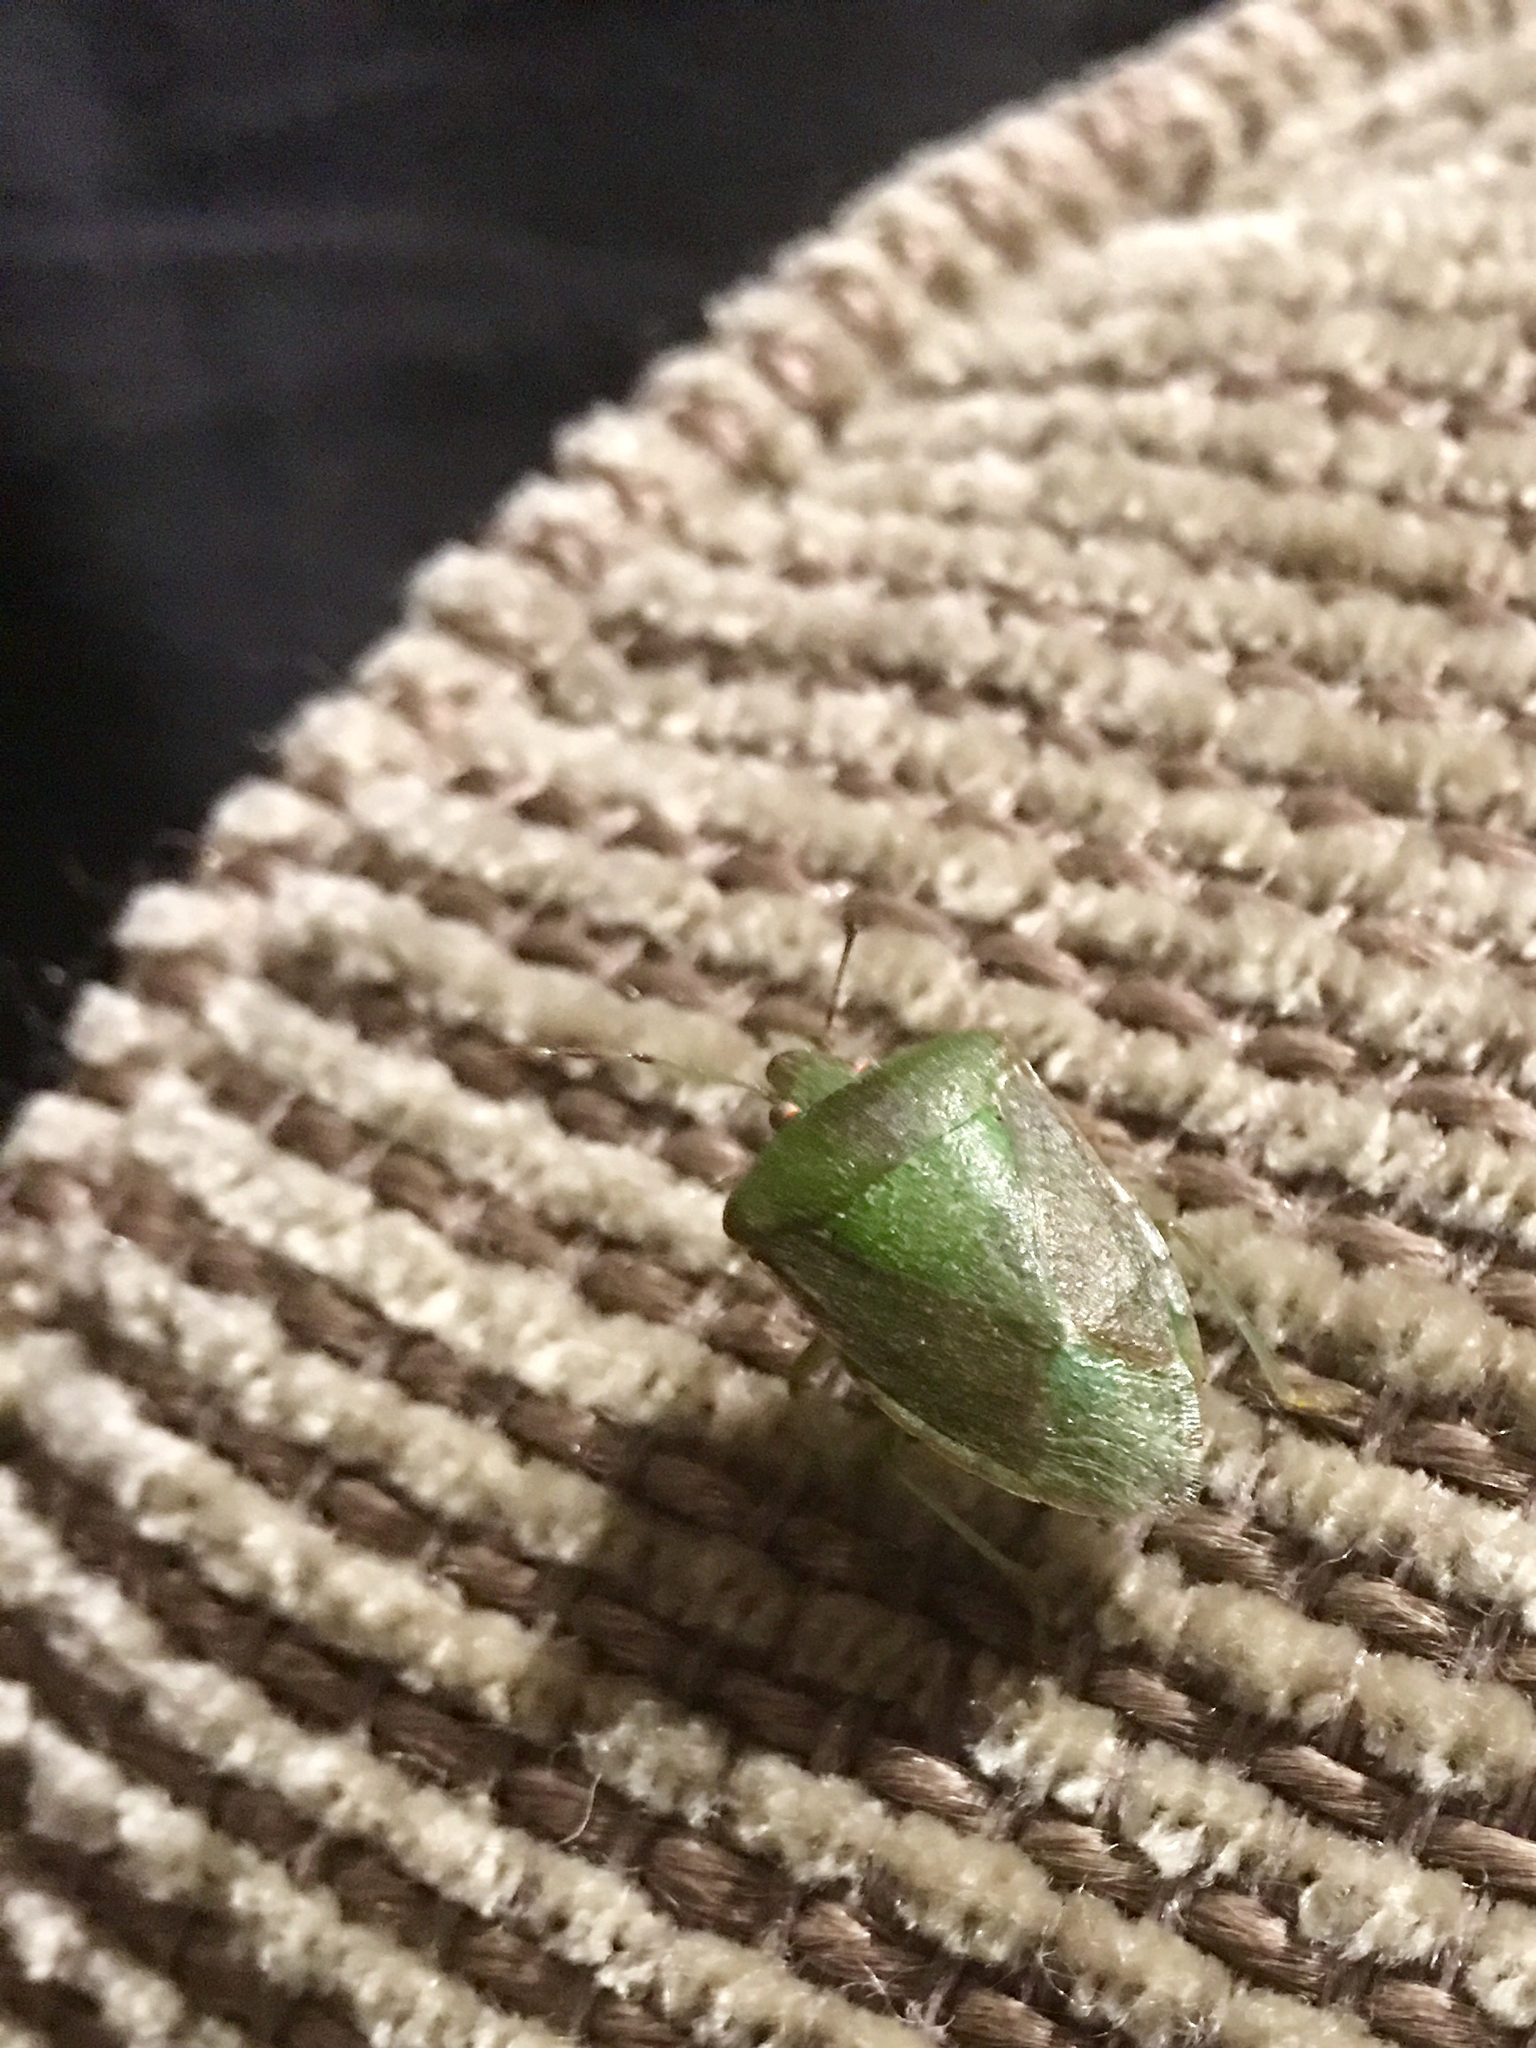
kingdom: Animalia
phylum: Arthropoda
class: Insecta
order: Hemiptera
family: Pentatomidae
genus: Nezara
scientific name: Nezara viridula
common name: Southern green stink bug
